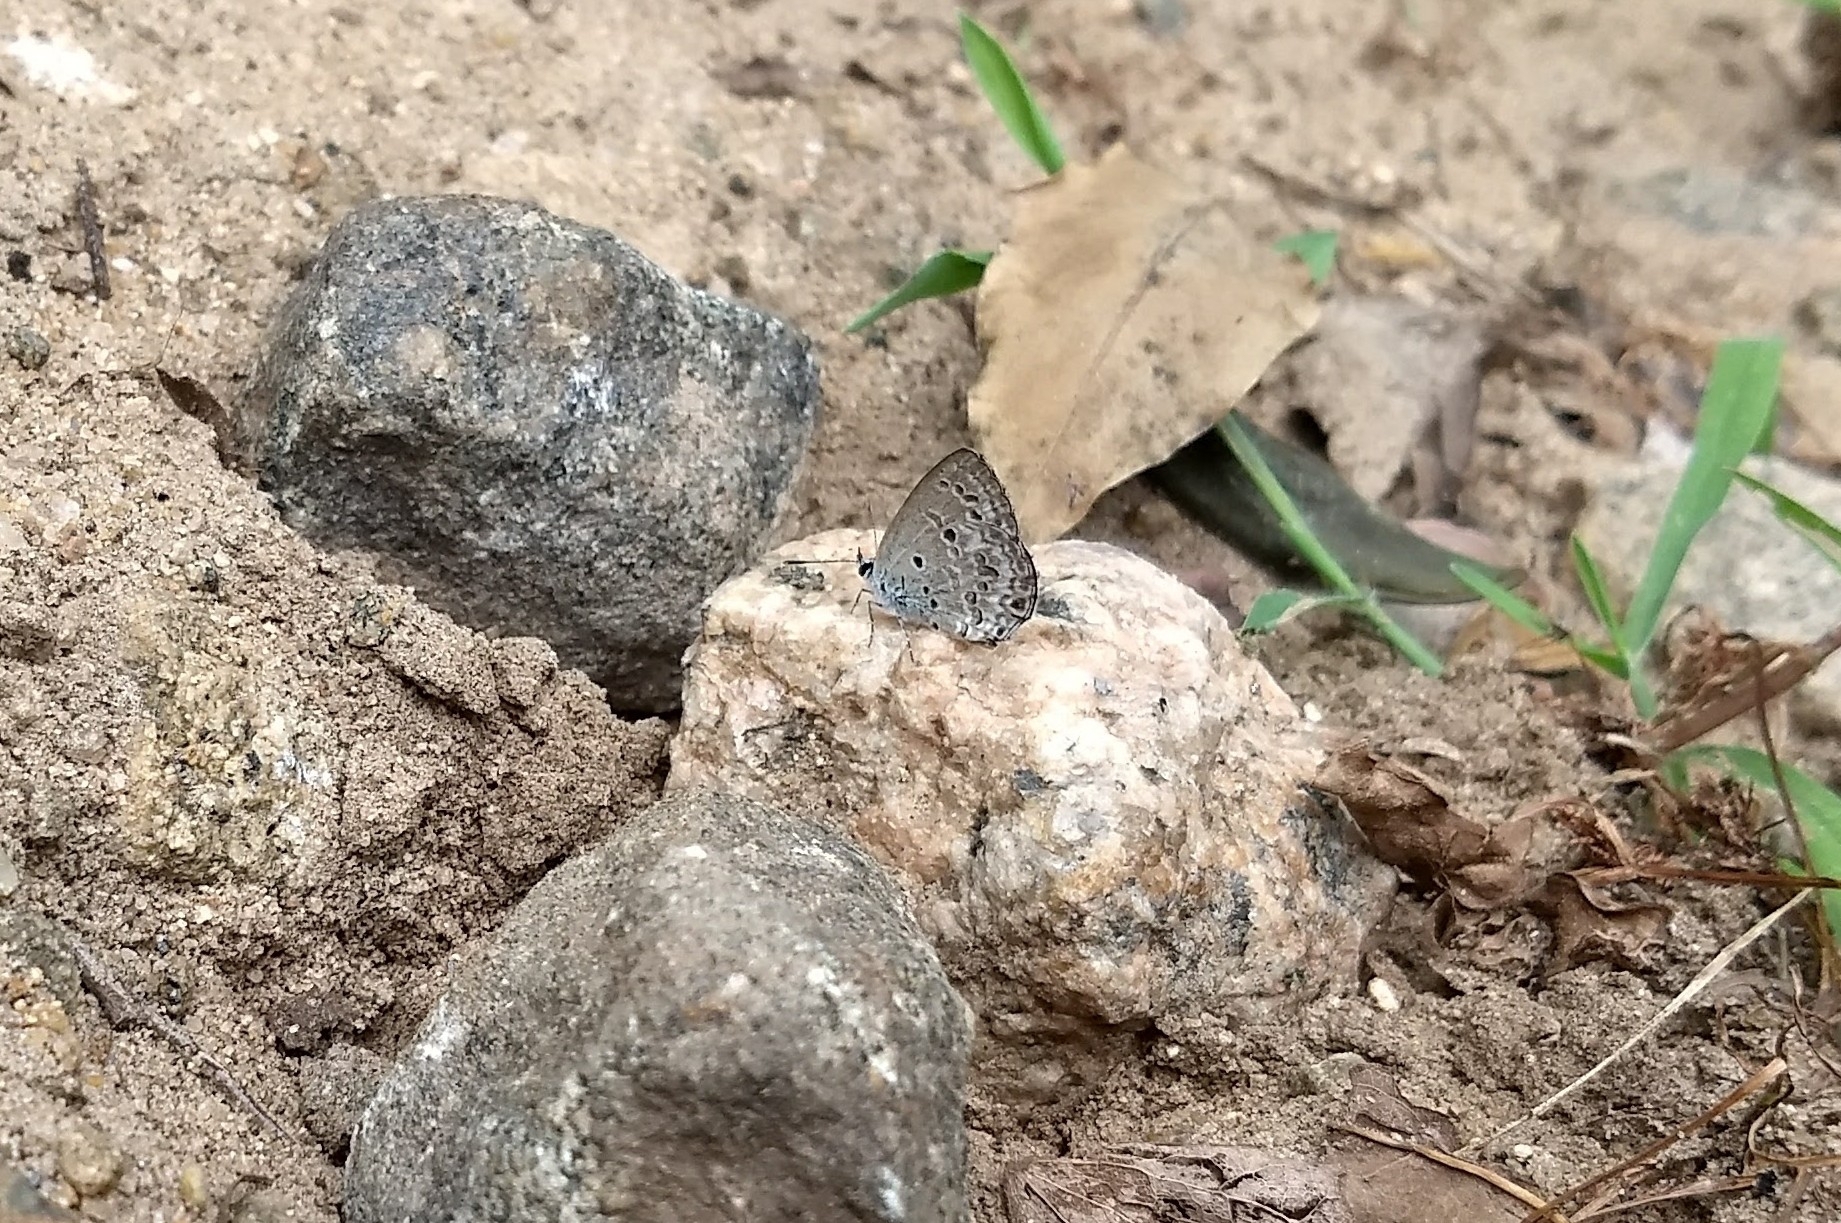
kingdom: Animalia
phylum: Arthropoda
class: Insecta
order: Lepidoptera
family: Lycaenidae
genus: Chilades
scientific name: Chilades laius
